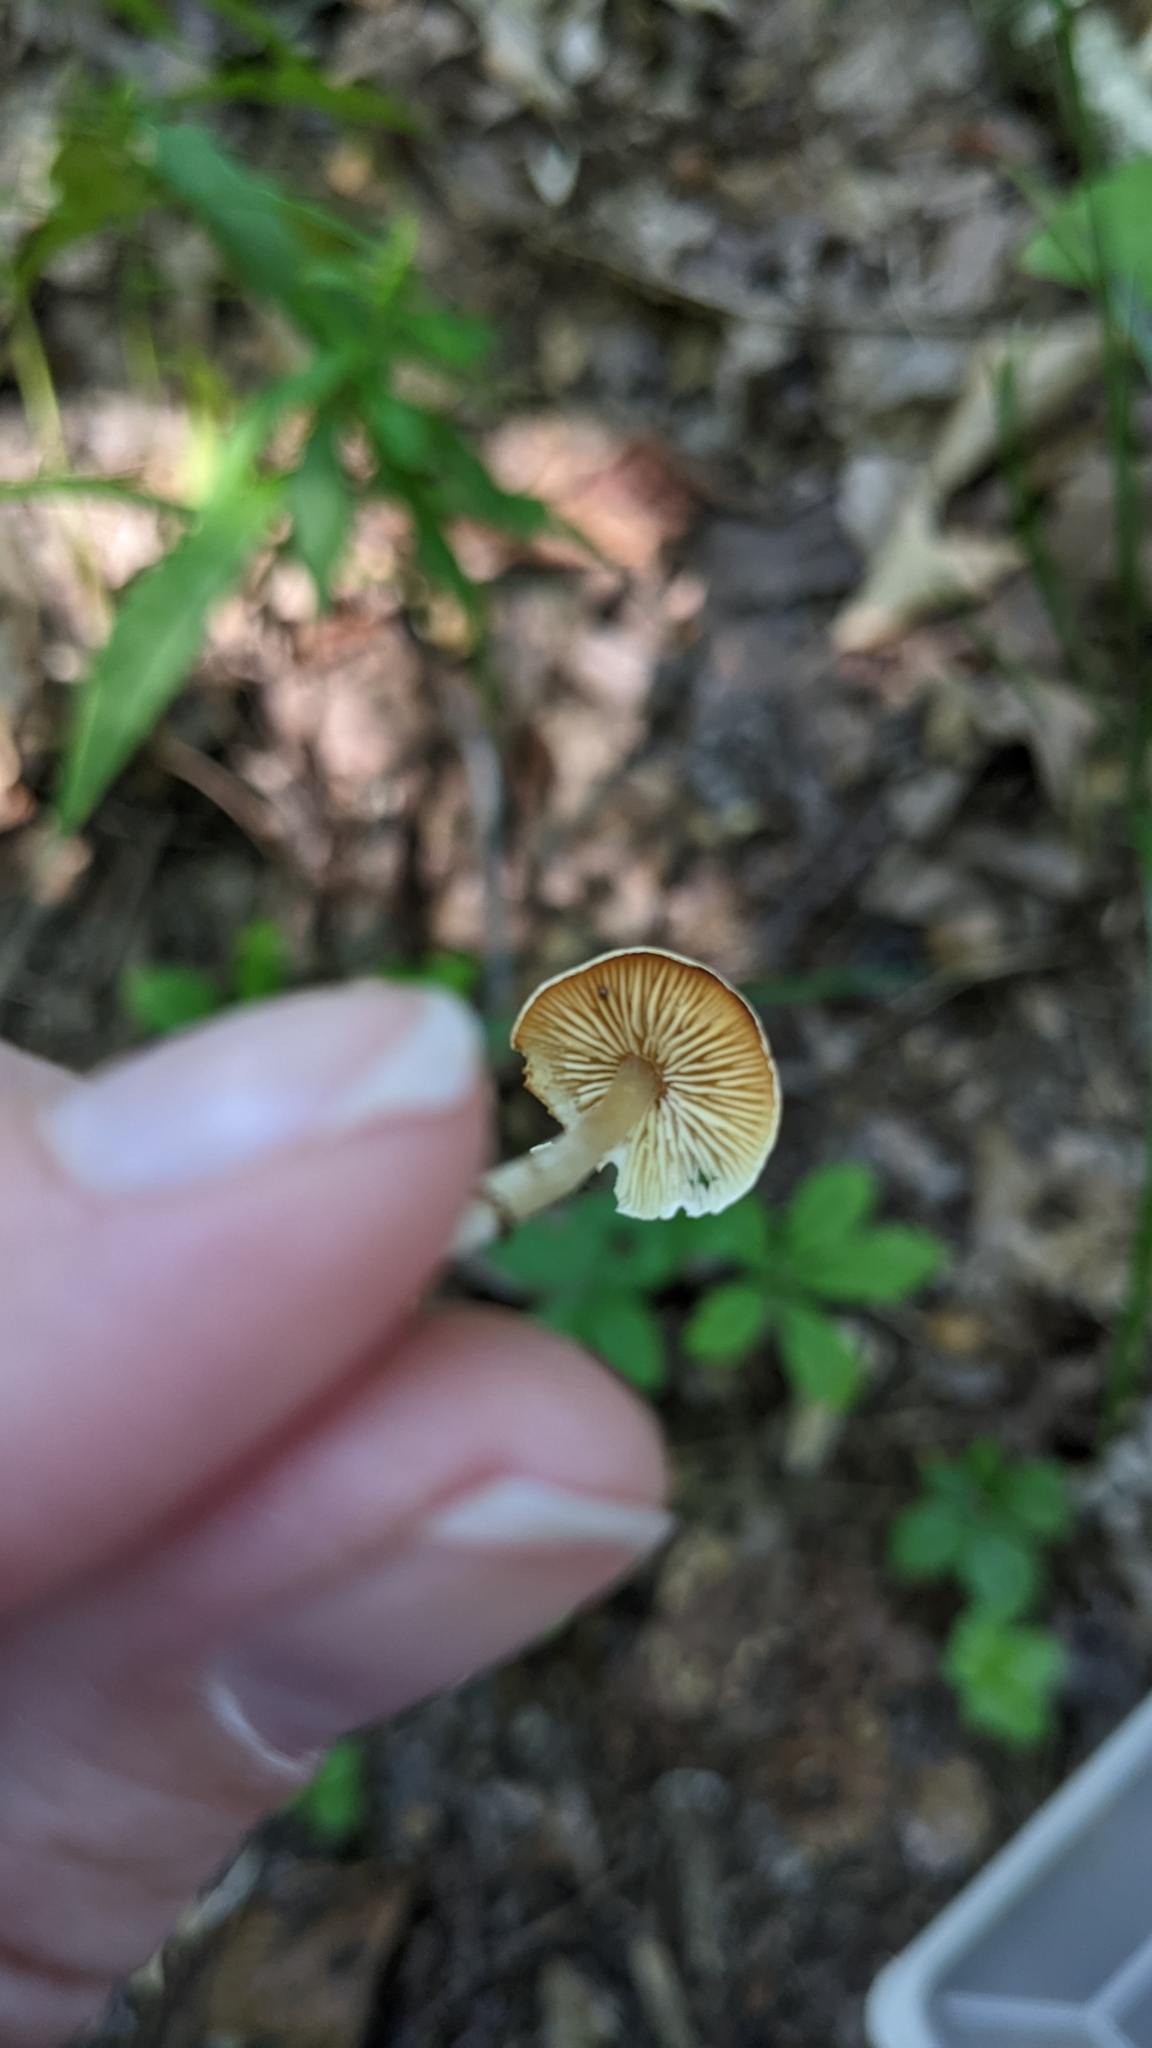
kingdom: Fungi
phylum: Basidiomycota
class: Agaricomycetes
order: Agaricales
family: Callistosporiaceae
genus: Callistosporium
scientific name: Callistosporium pseudofelleum
